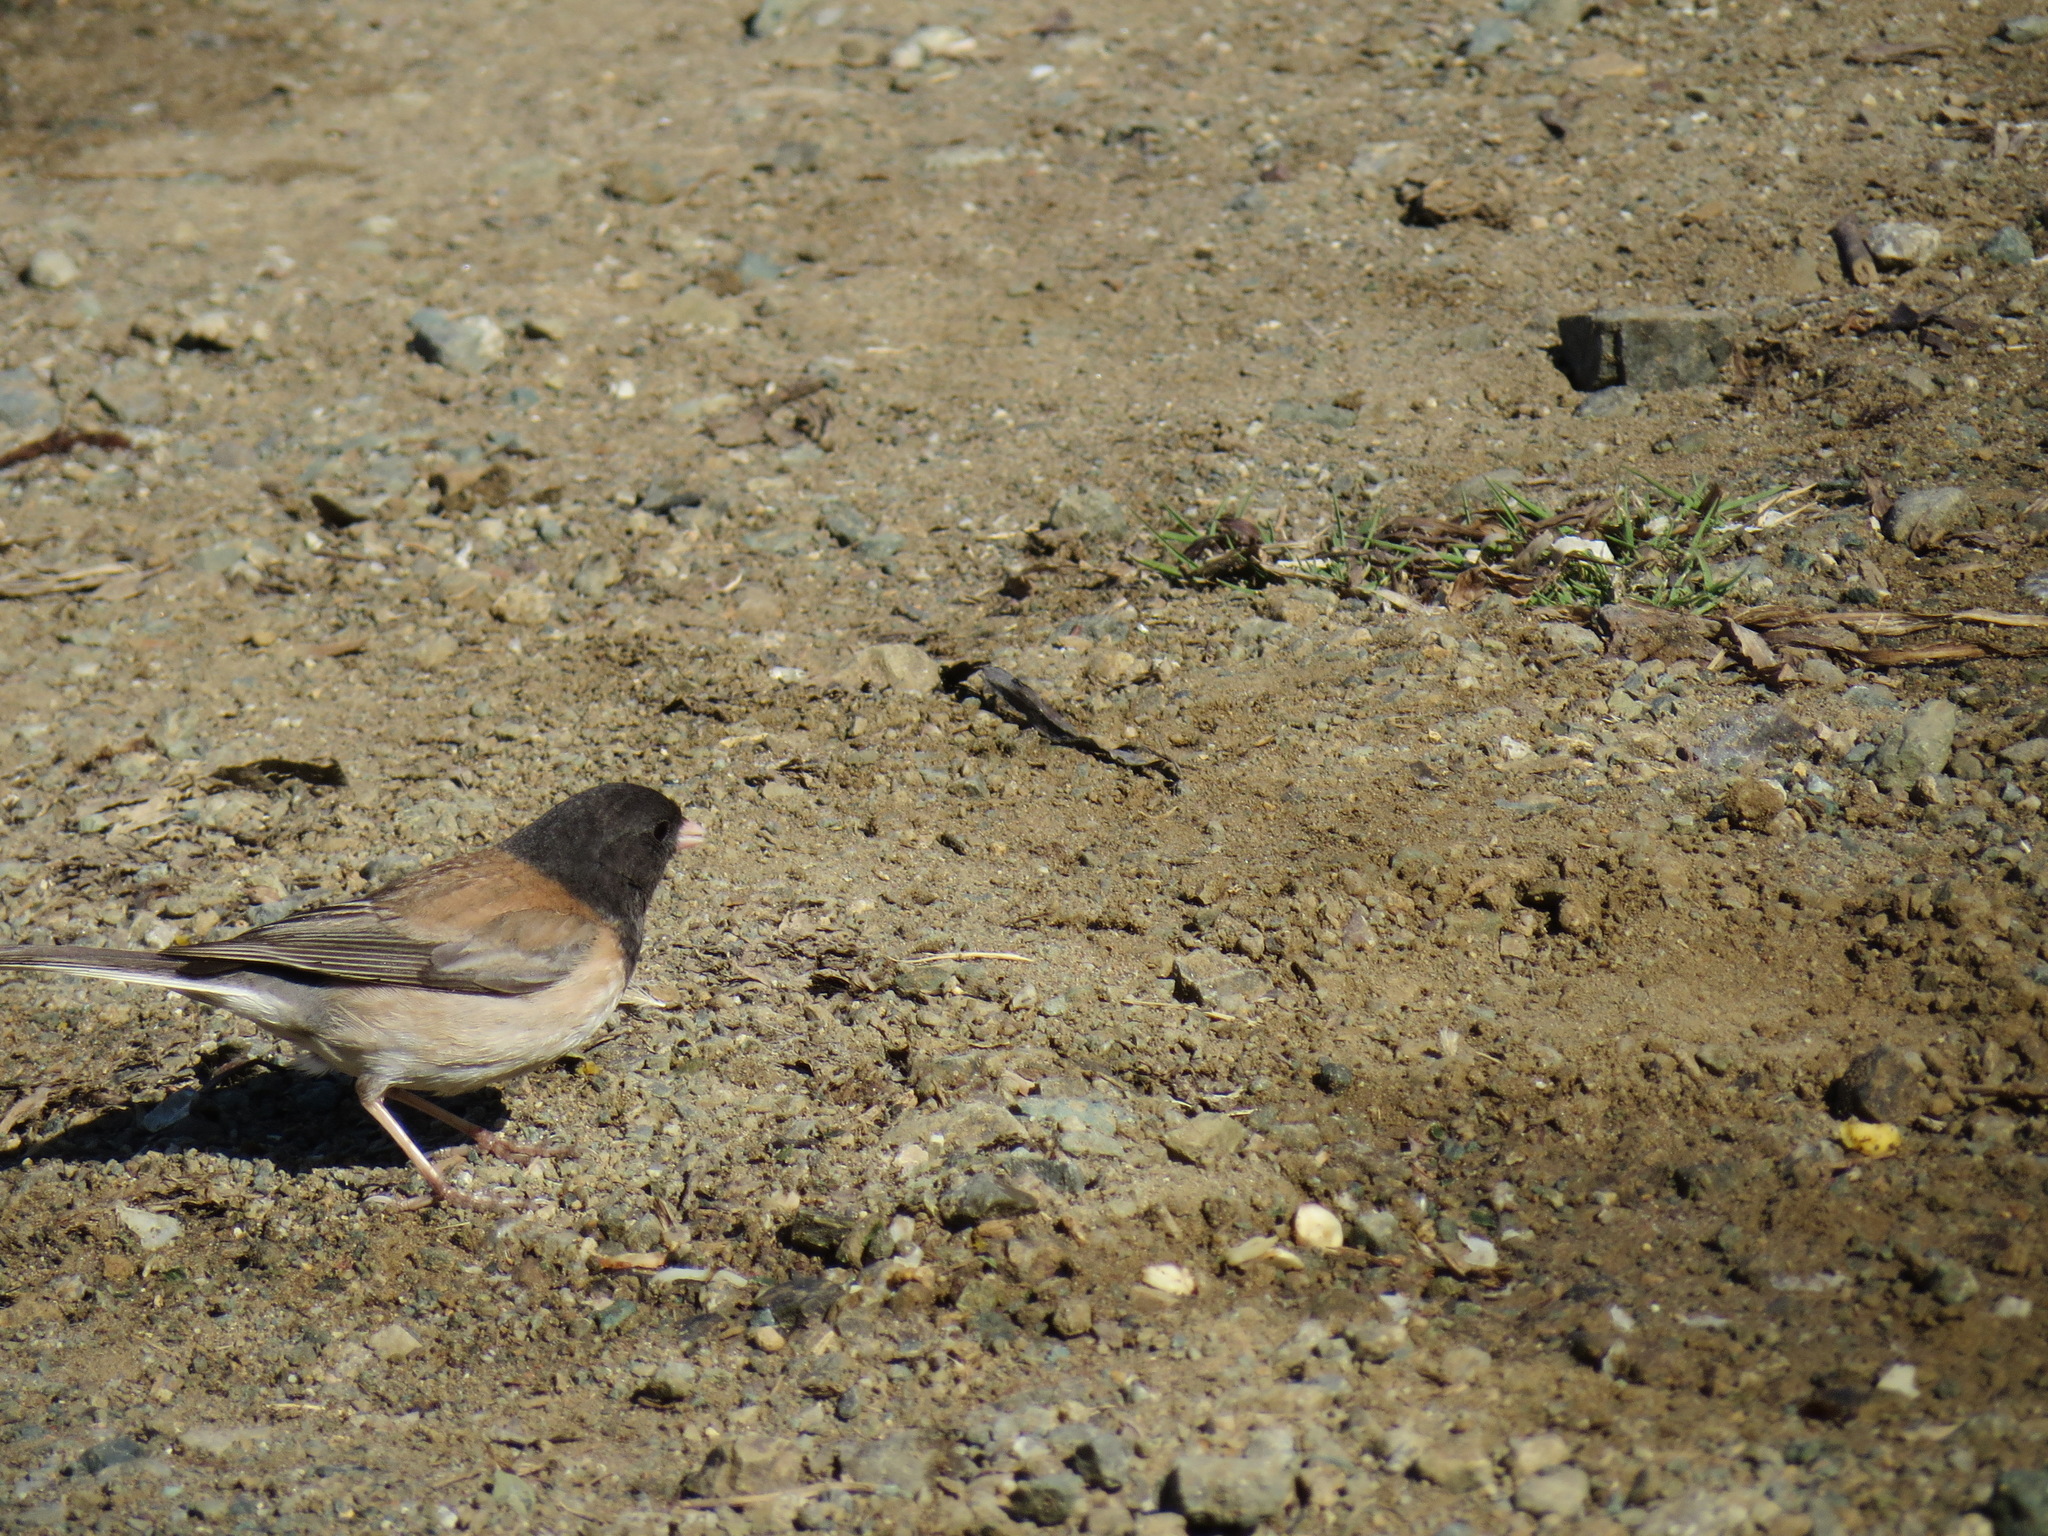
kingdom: Animalia
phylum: Chordata
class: Aves
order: Passeriformes
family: Passerellidae
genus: Junco
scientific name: Junco hyemalis
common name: Dark-eyed junco
